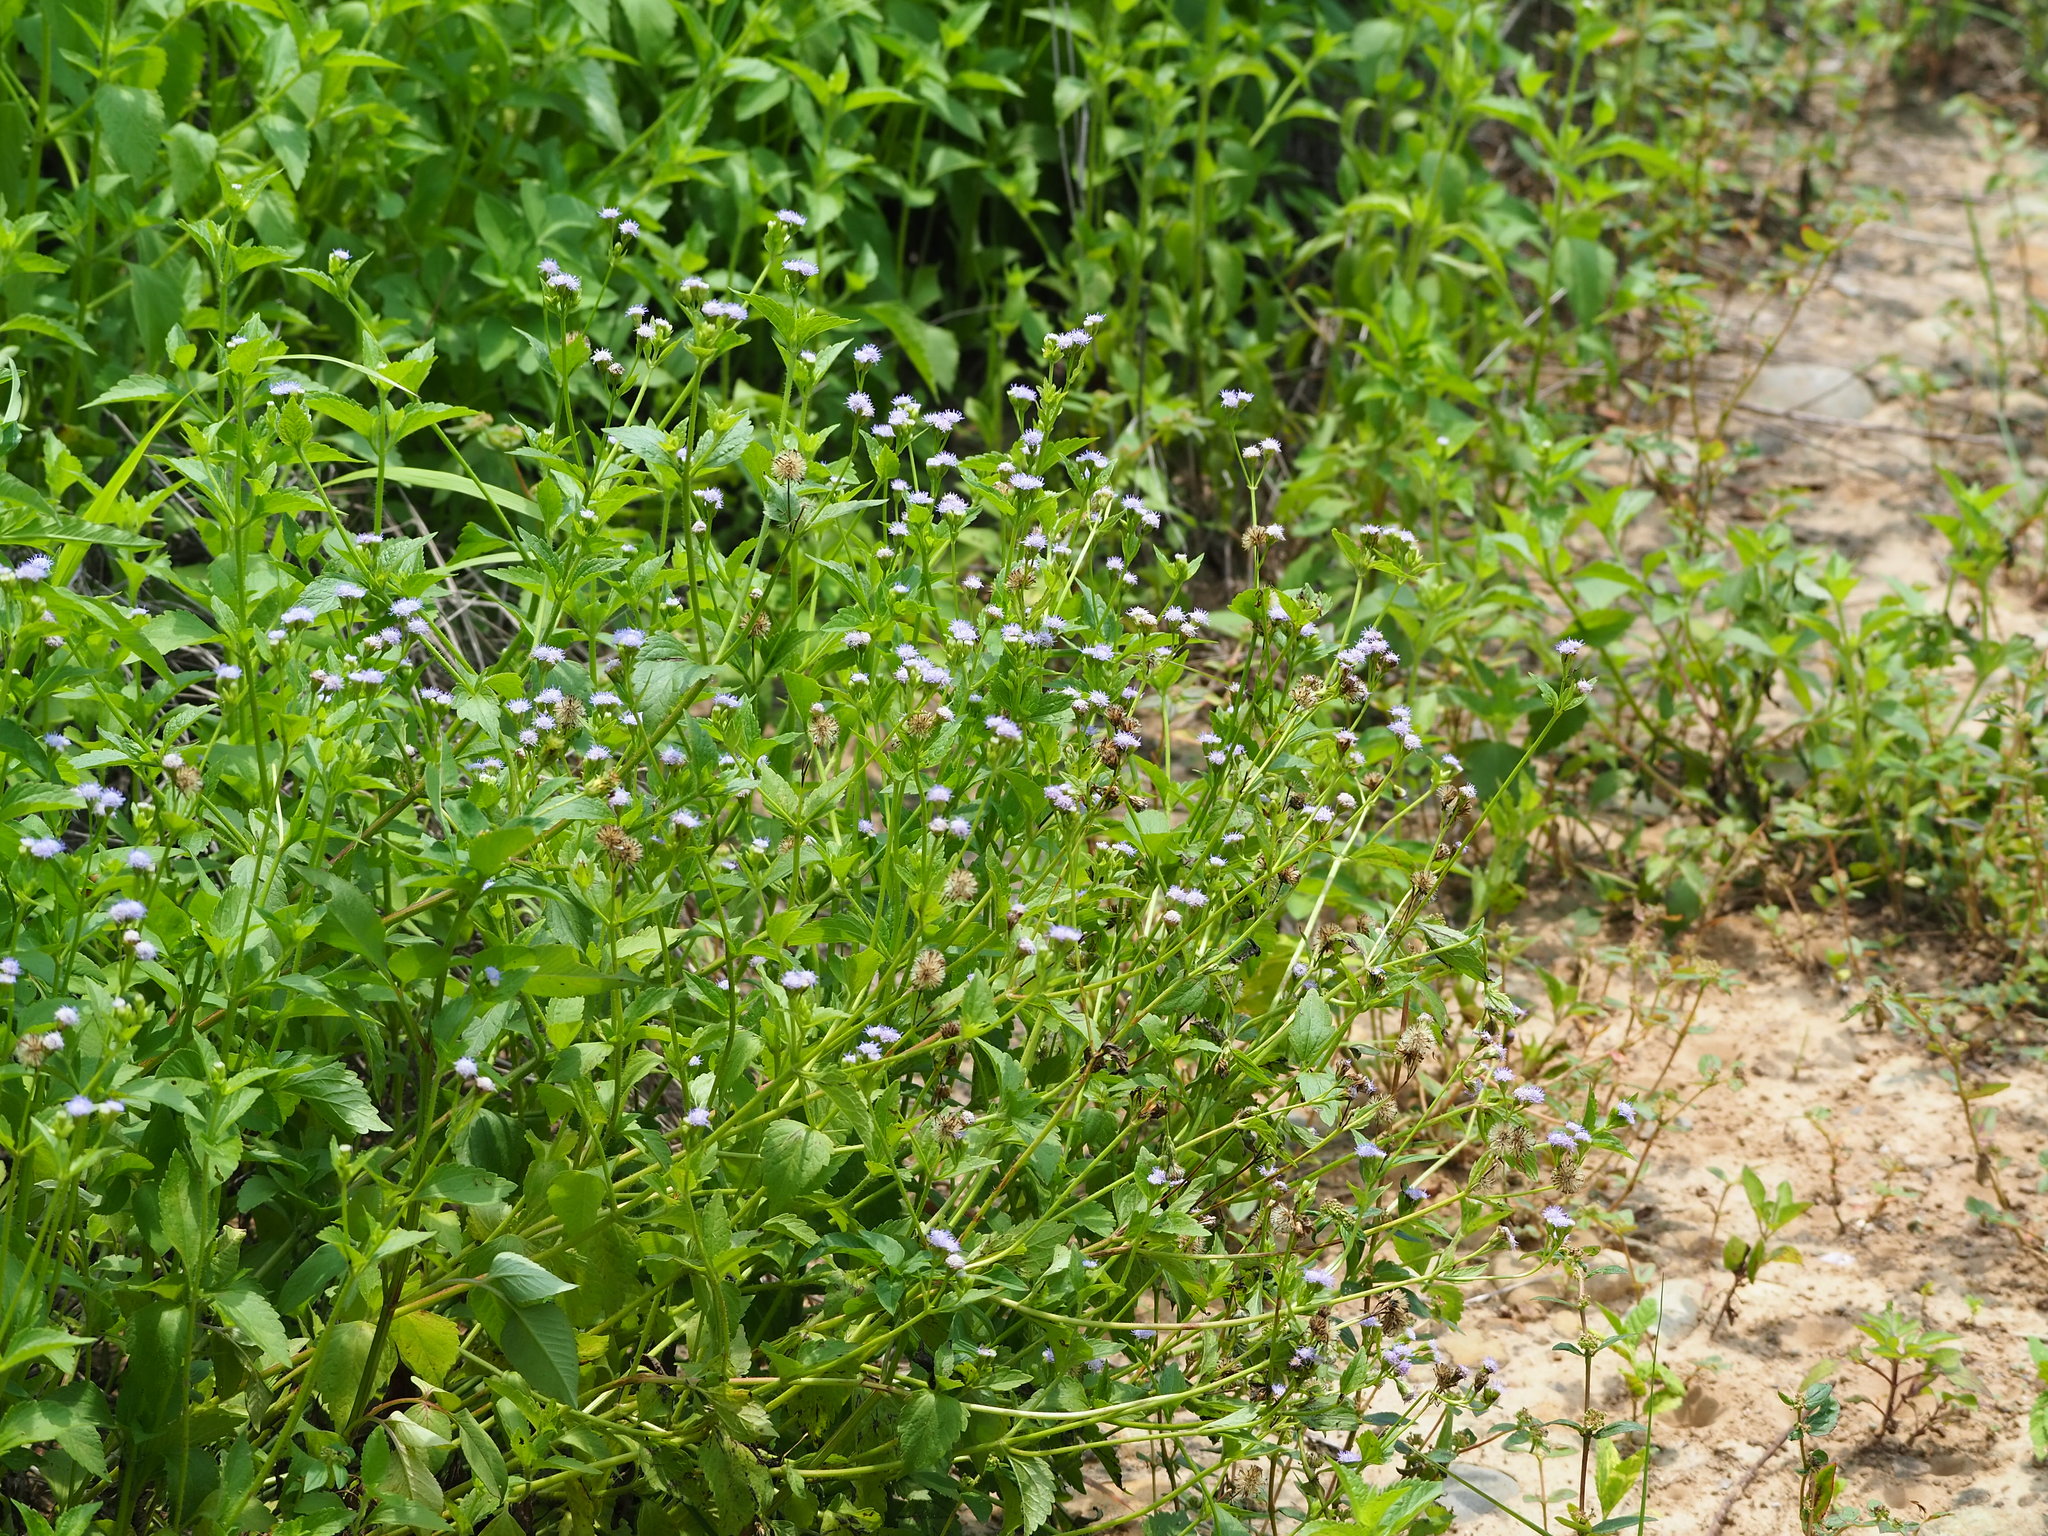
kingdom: Plantae
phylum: Tracheophyta
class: Magnoliopsida
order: Asterales
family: Asteraceae
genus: Praxelis
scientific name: Praxelis clematidea
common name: Praxelis
